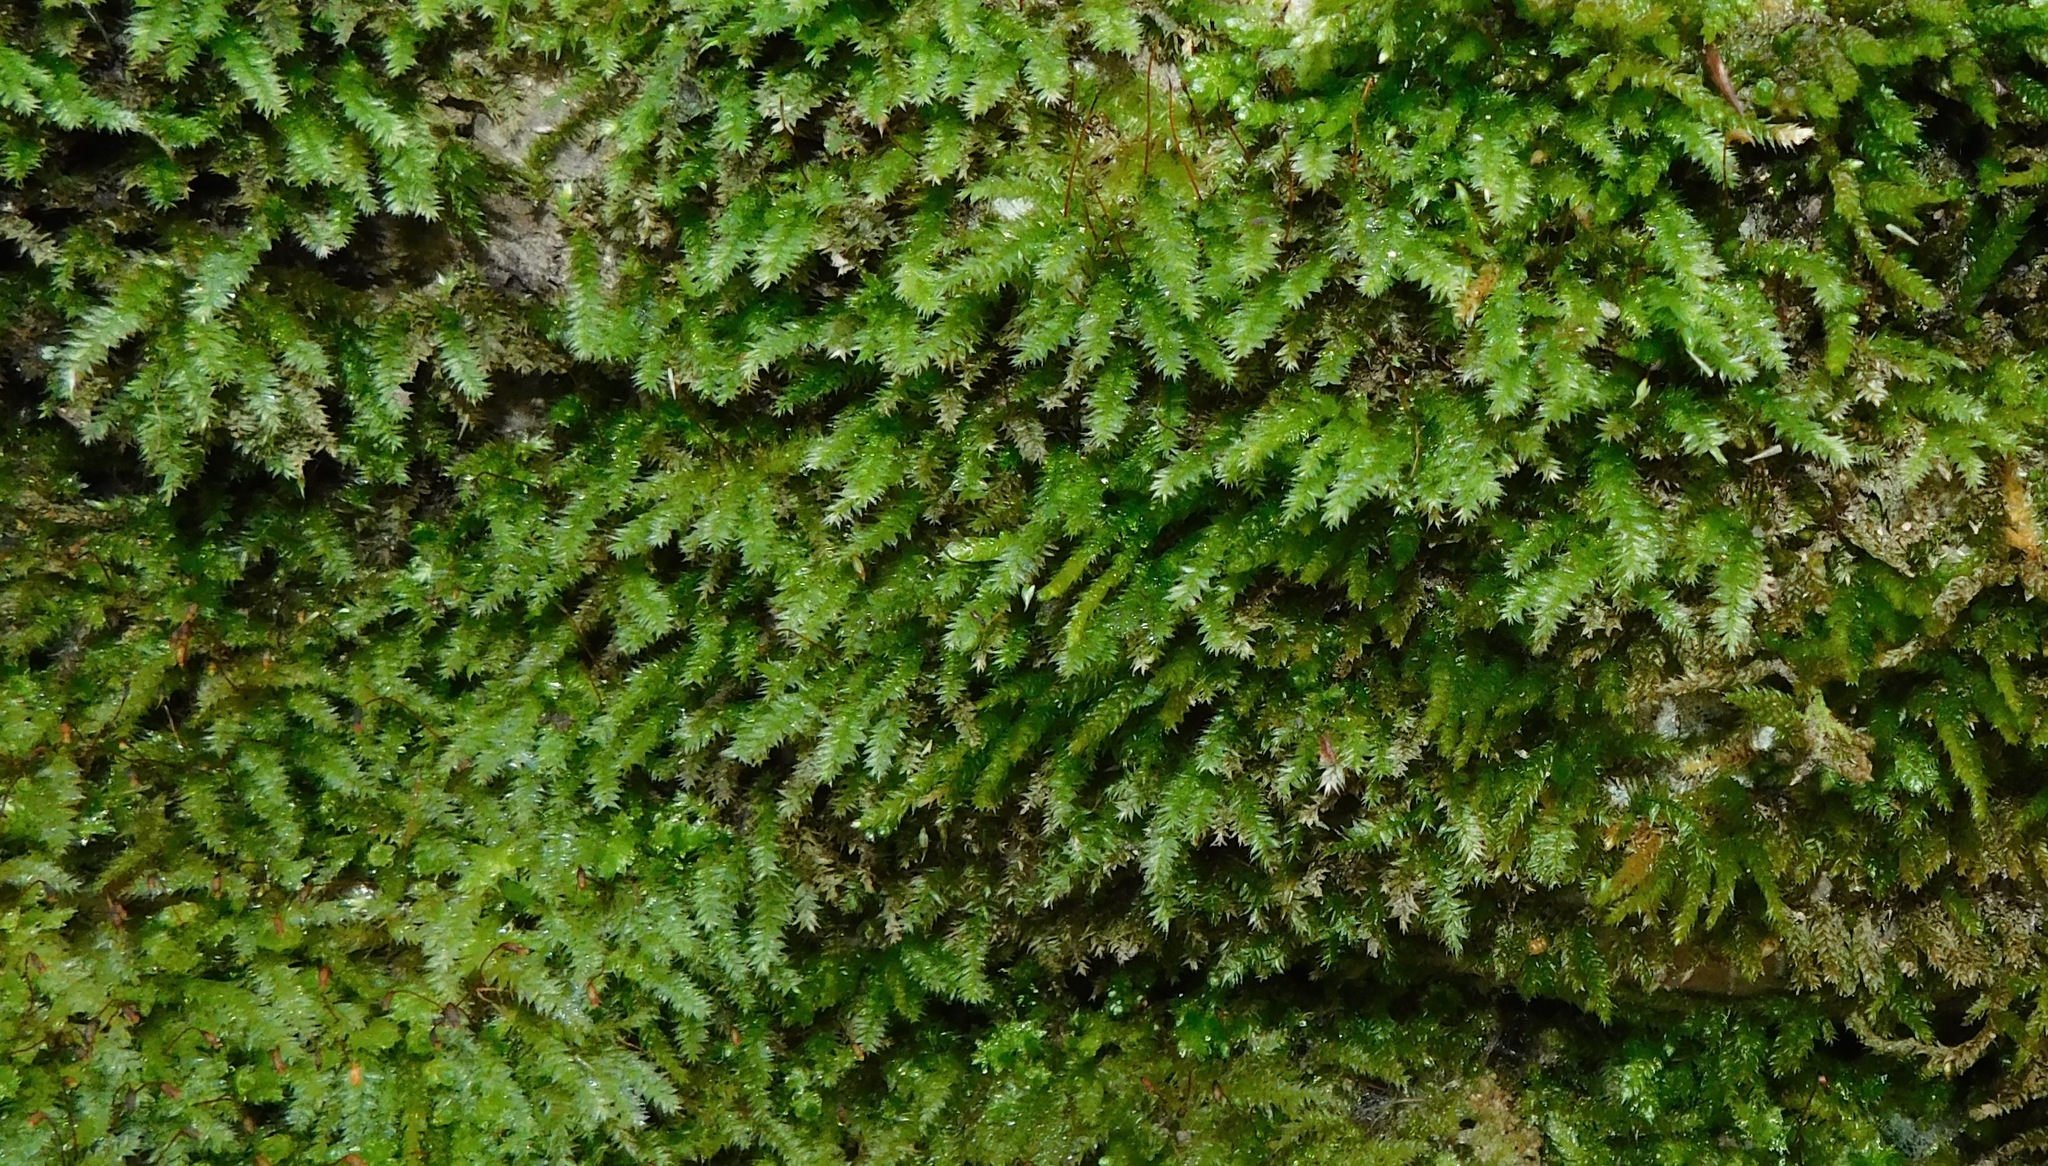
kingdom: Plantae
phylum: Bryophyta
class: Bryopsida
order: Hypnales
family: Plagiotheciaceae
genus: Plagiothecium
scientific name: Plagiothecium laetum
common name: Bright silk moss
